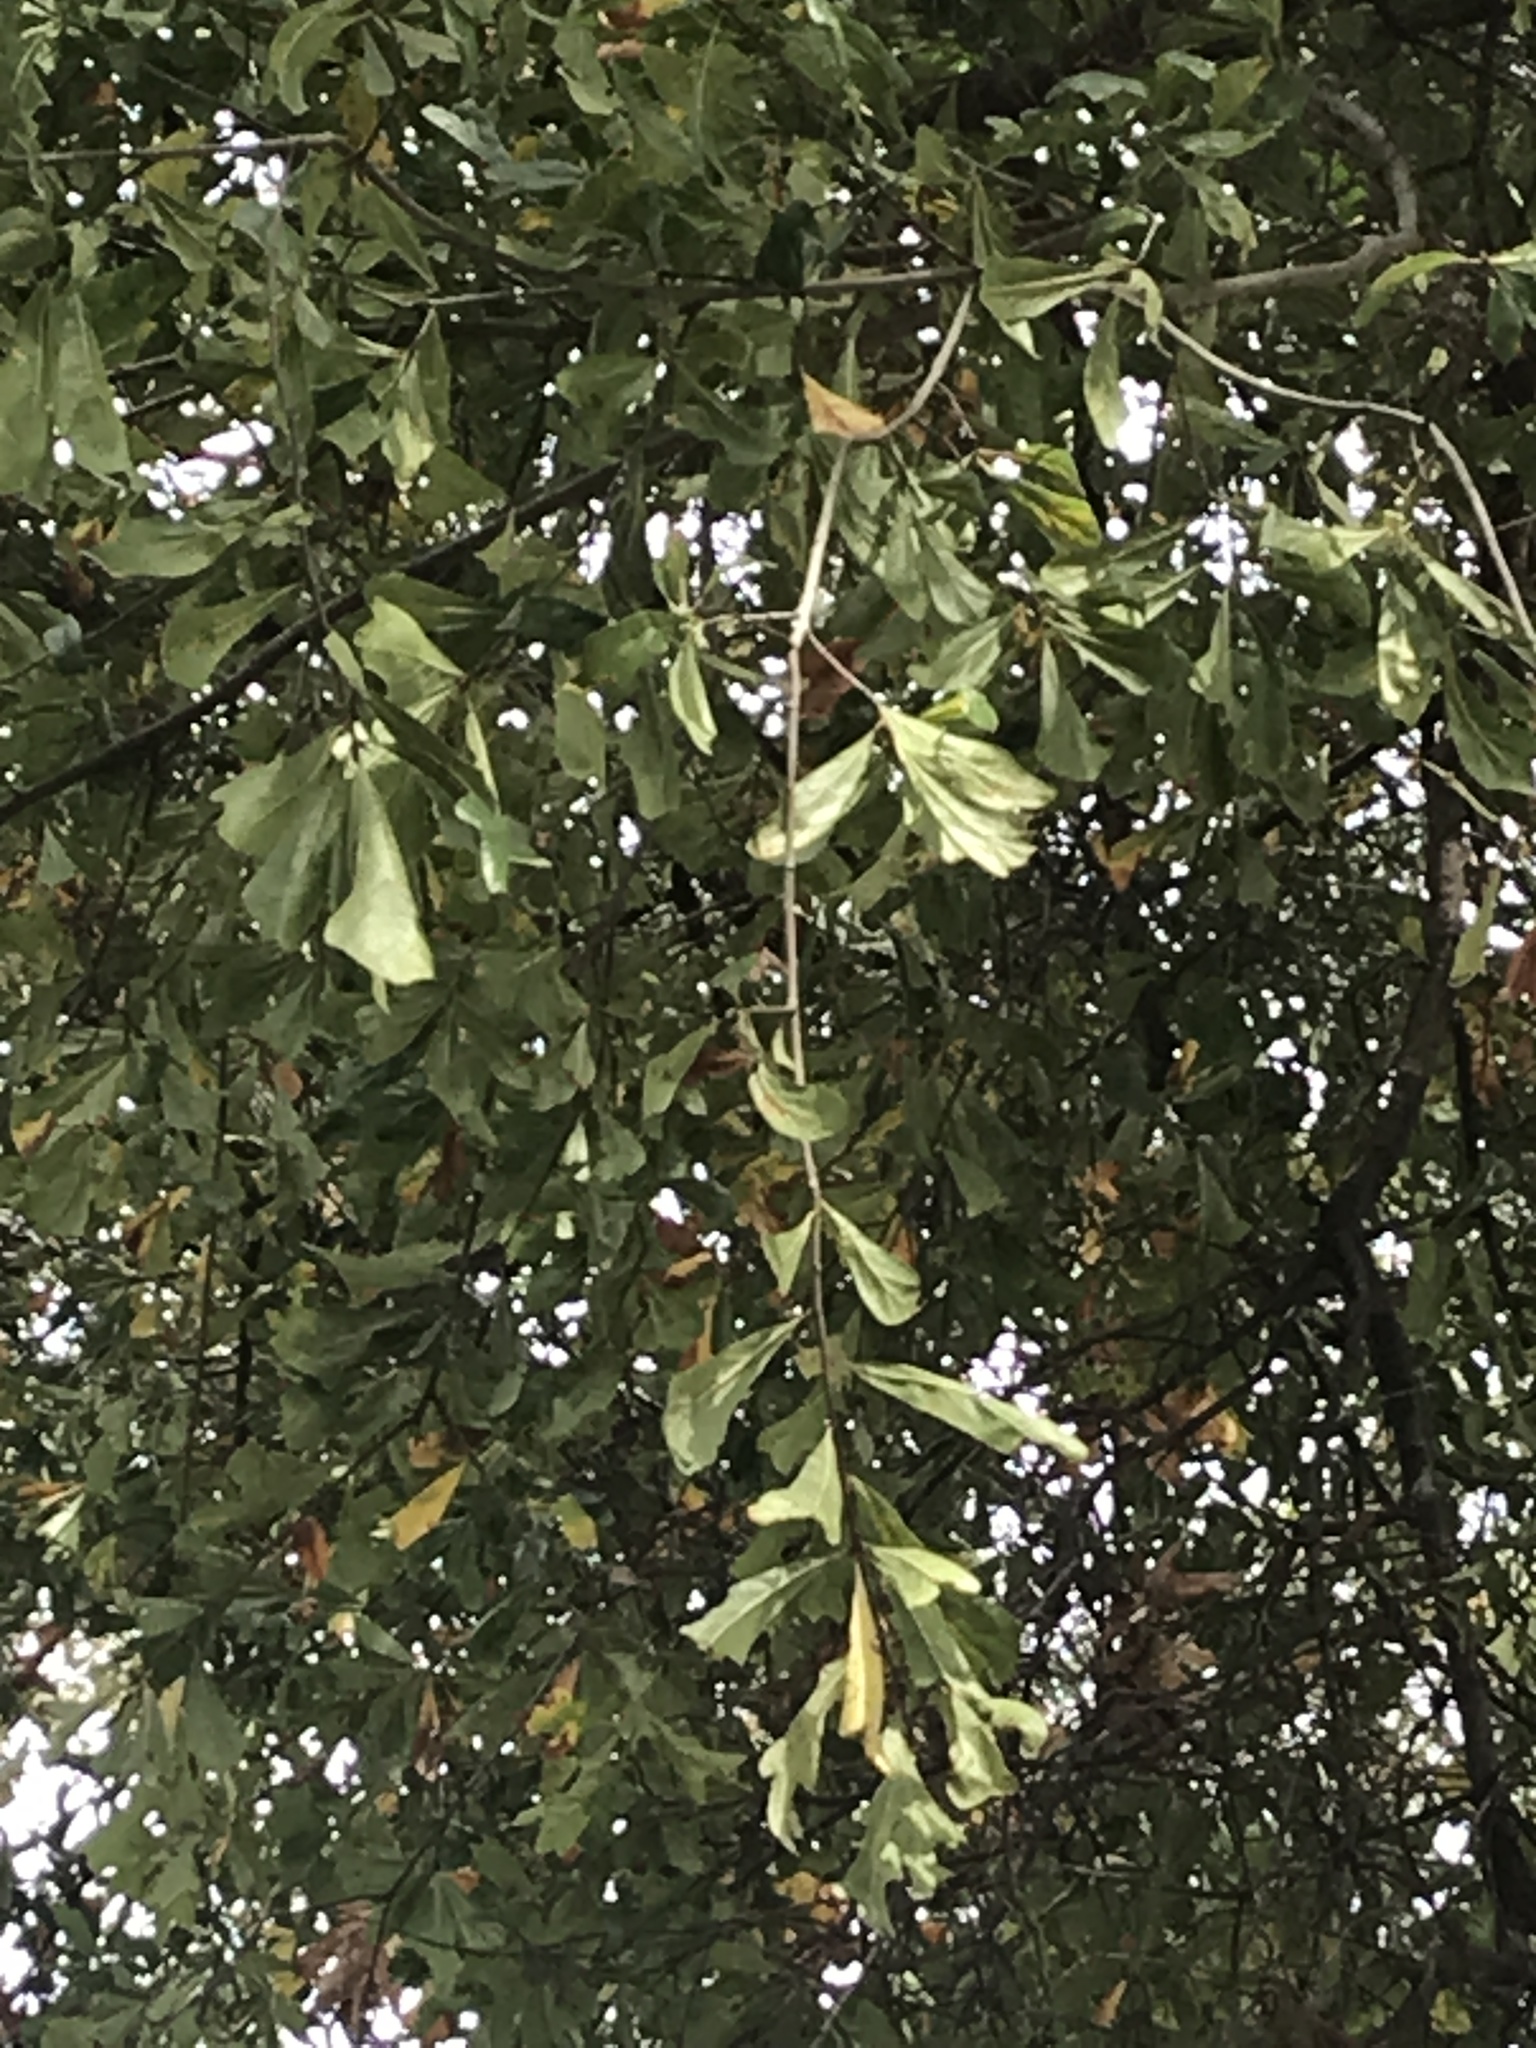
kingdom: Plantae
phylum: Tracheophyta
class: Magnoliopsida
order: Fagales
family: Fagaceae
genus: Quercus
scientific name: Quercus nigra
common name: Water oak
